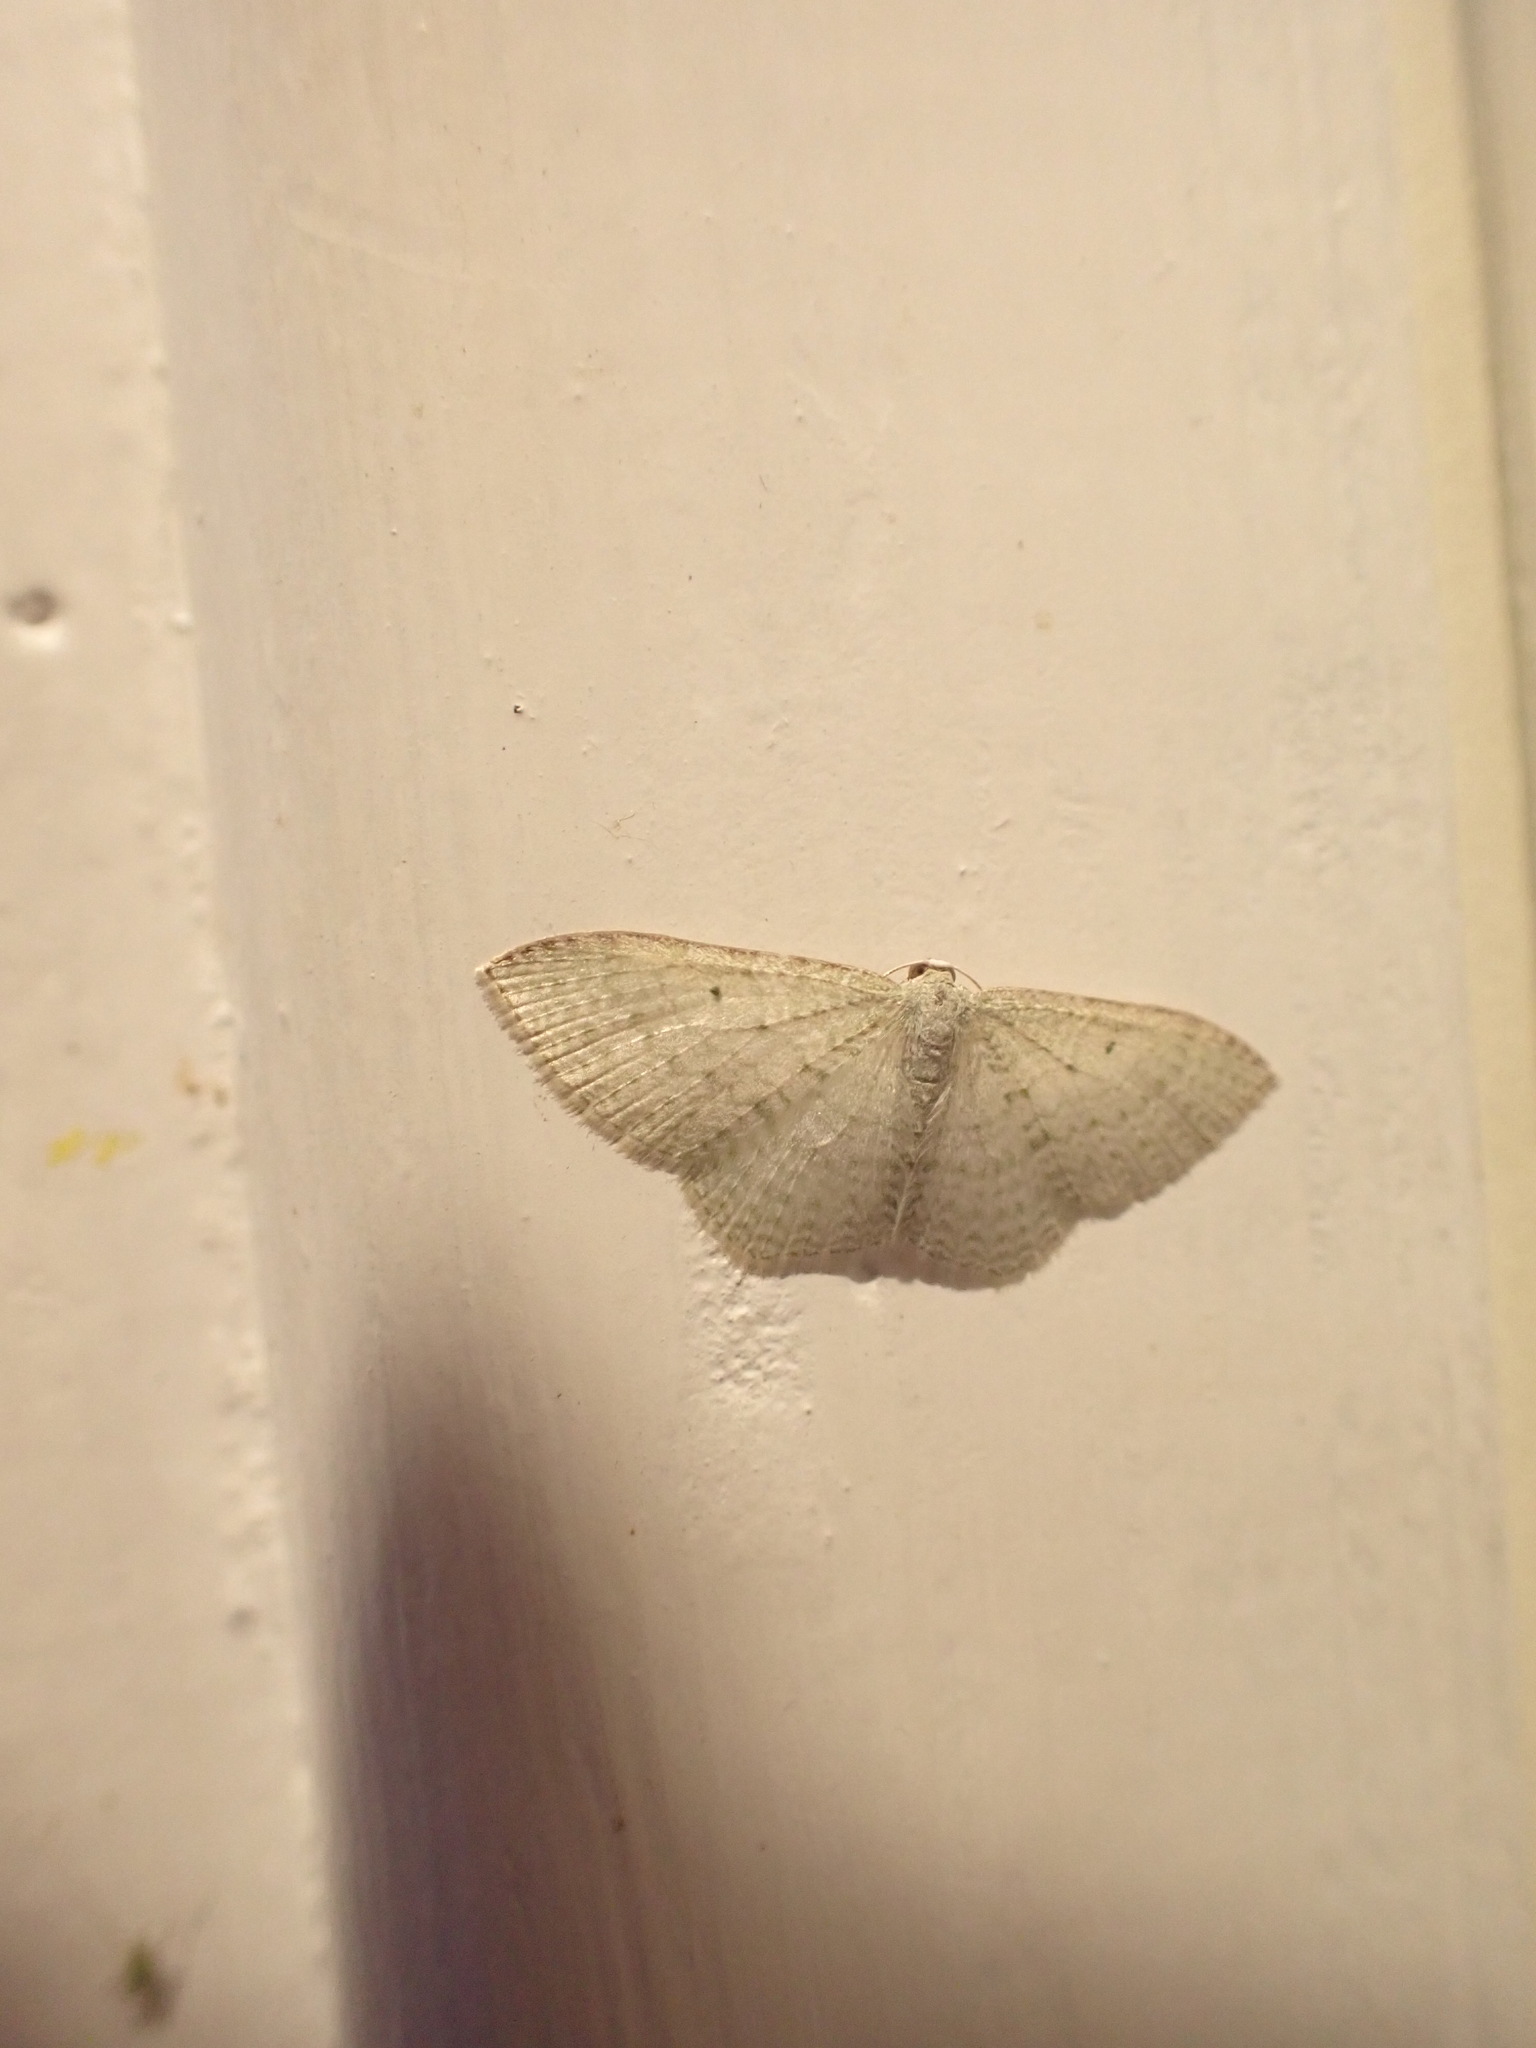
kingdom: Animalia
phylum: Arthropoda
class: Insecta
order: Lepidoptera
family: Geometridae
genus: Poecilasthena
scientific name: Poecilasthena pulchraria
